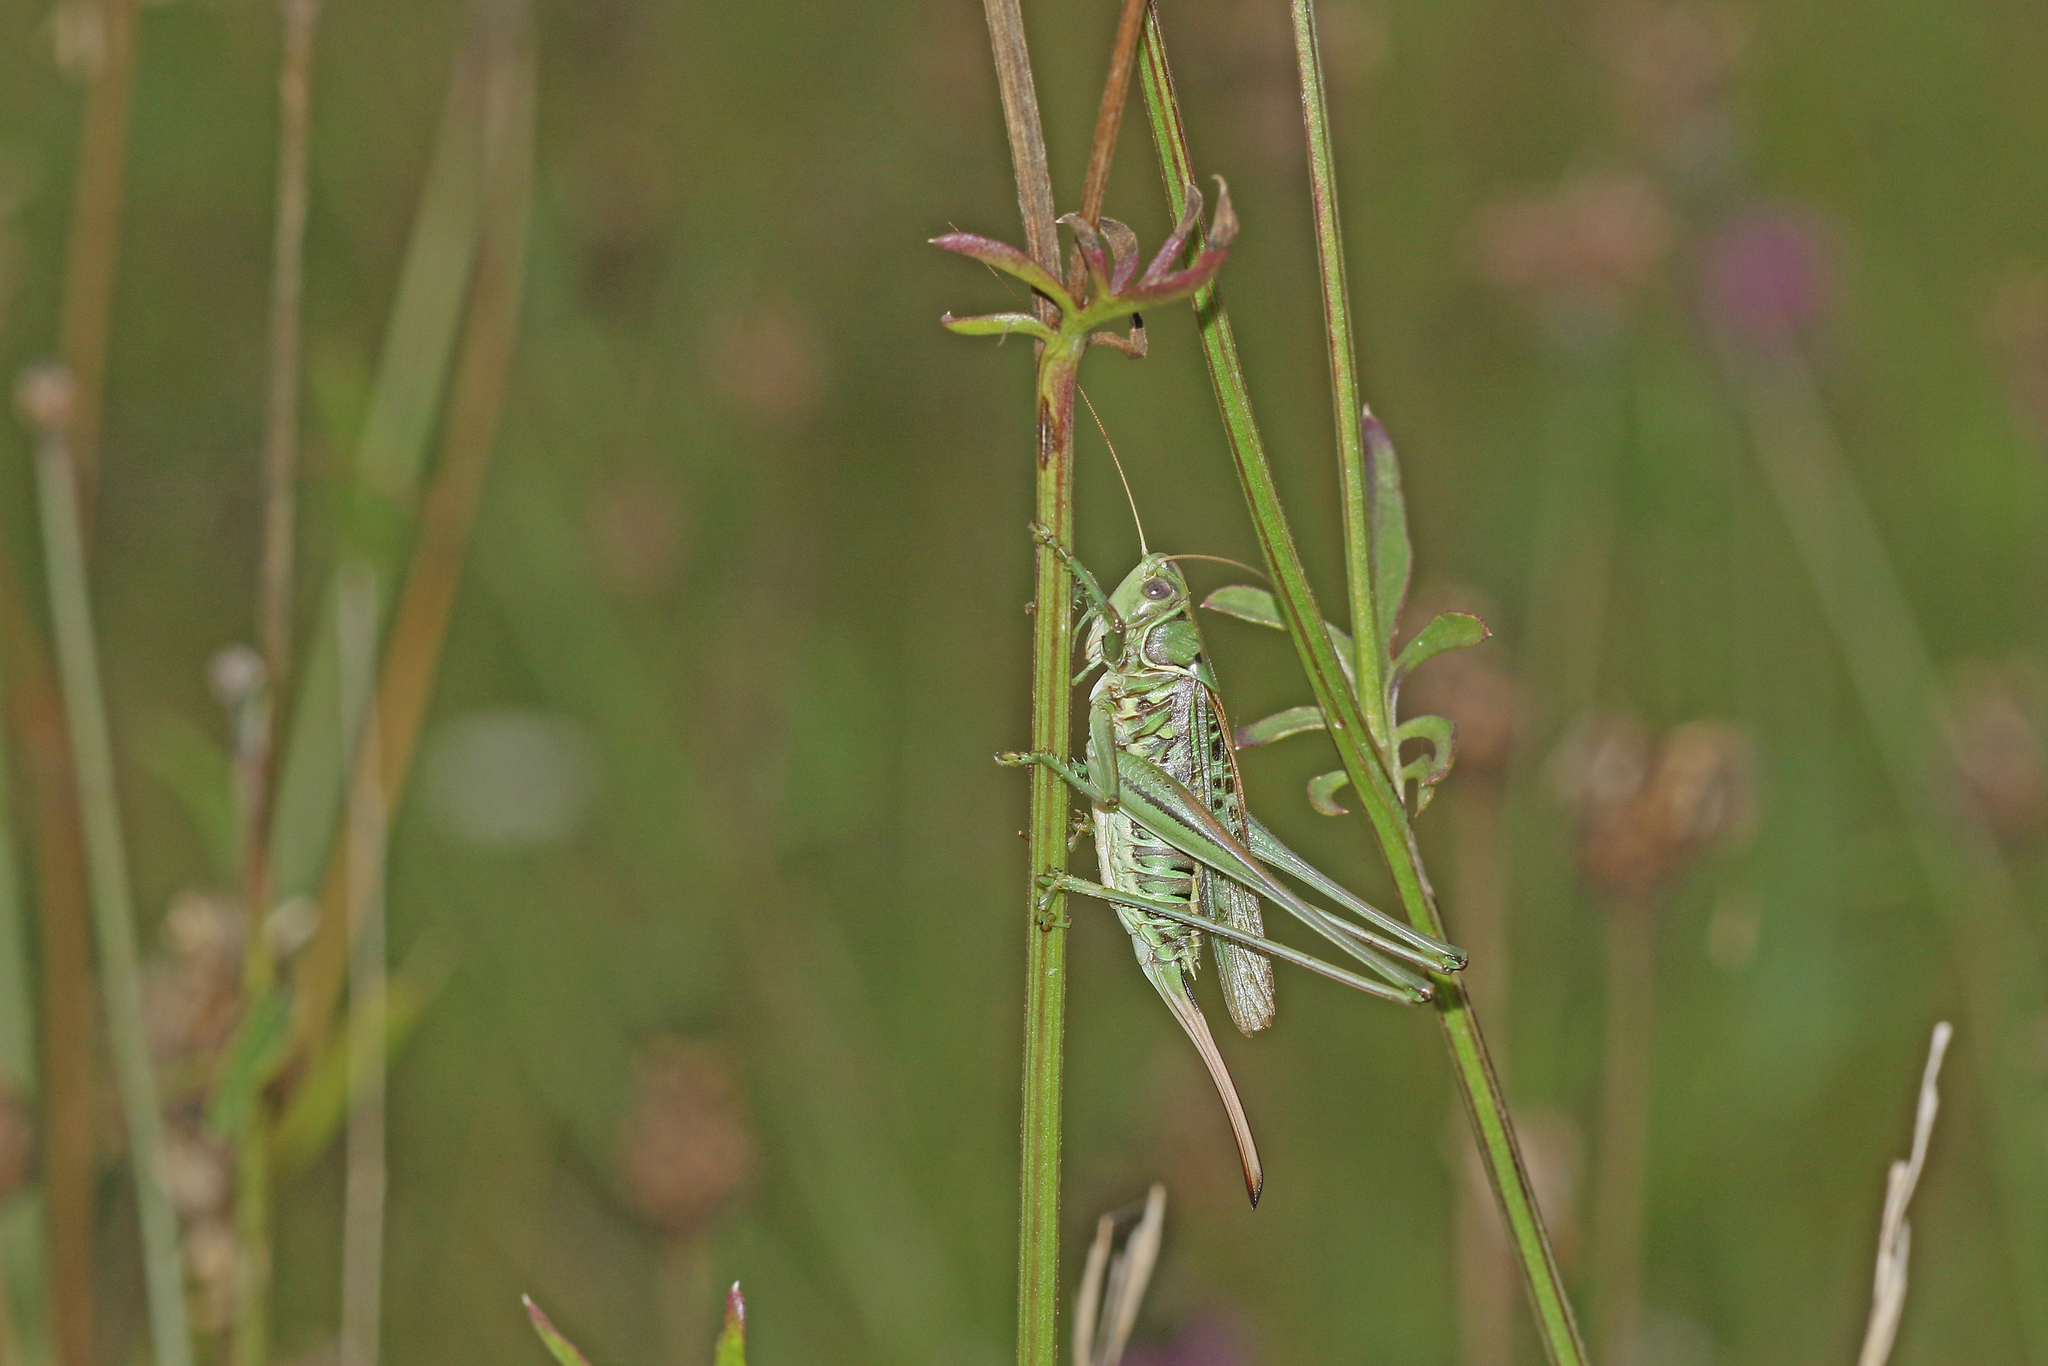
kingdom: Animalia
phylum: Arthropoda
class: Insecta
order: Orthoptera
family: Tettigoniidae
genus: Gampsocleis
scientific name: Gampsocleis glabra
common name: Heath bushcricket
